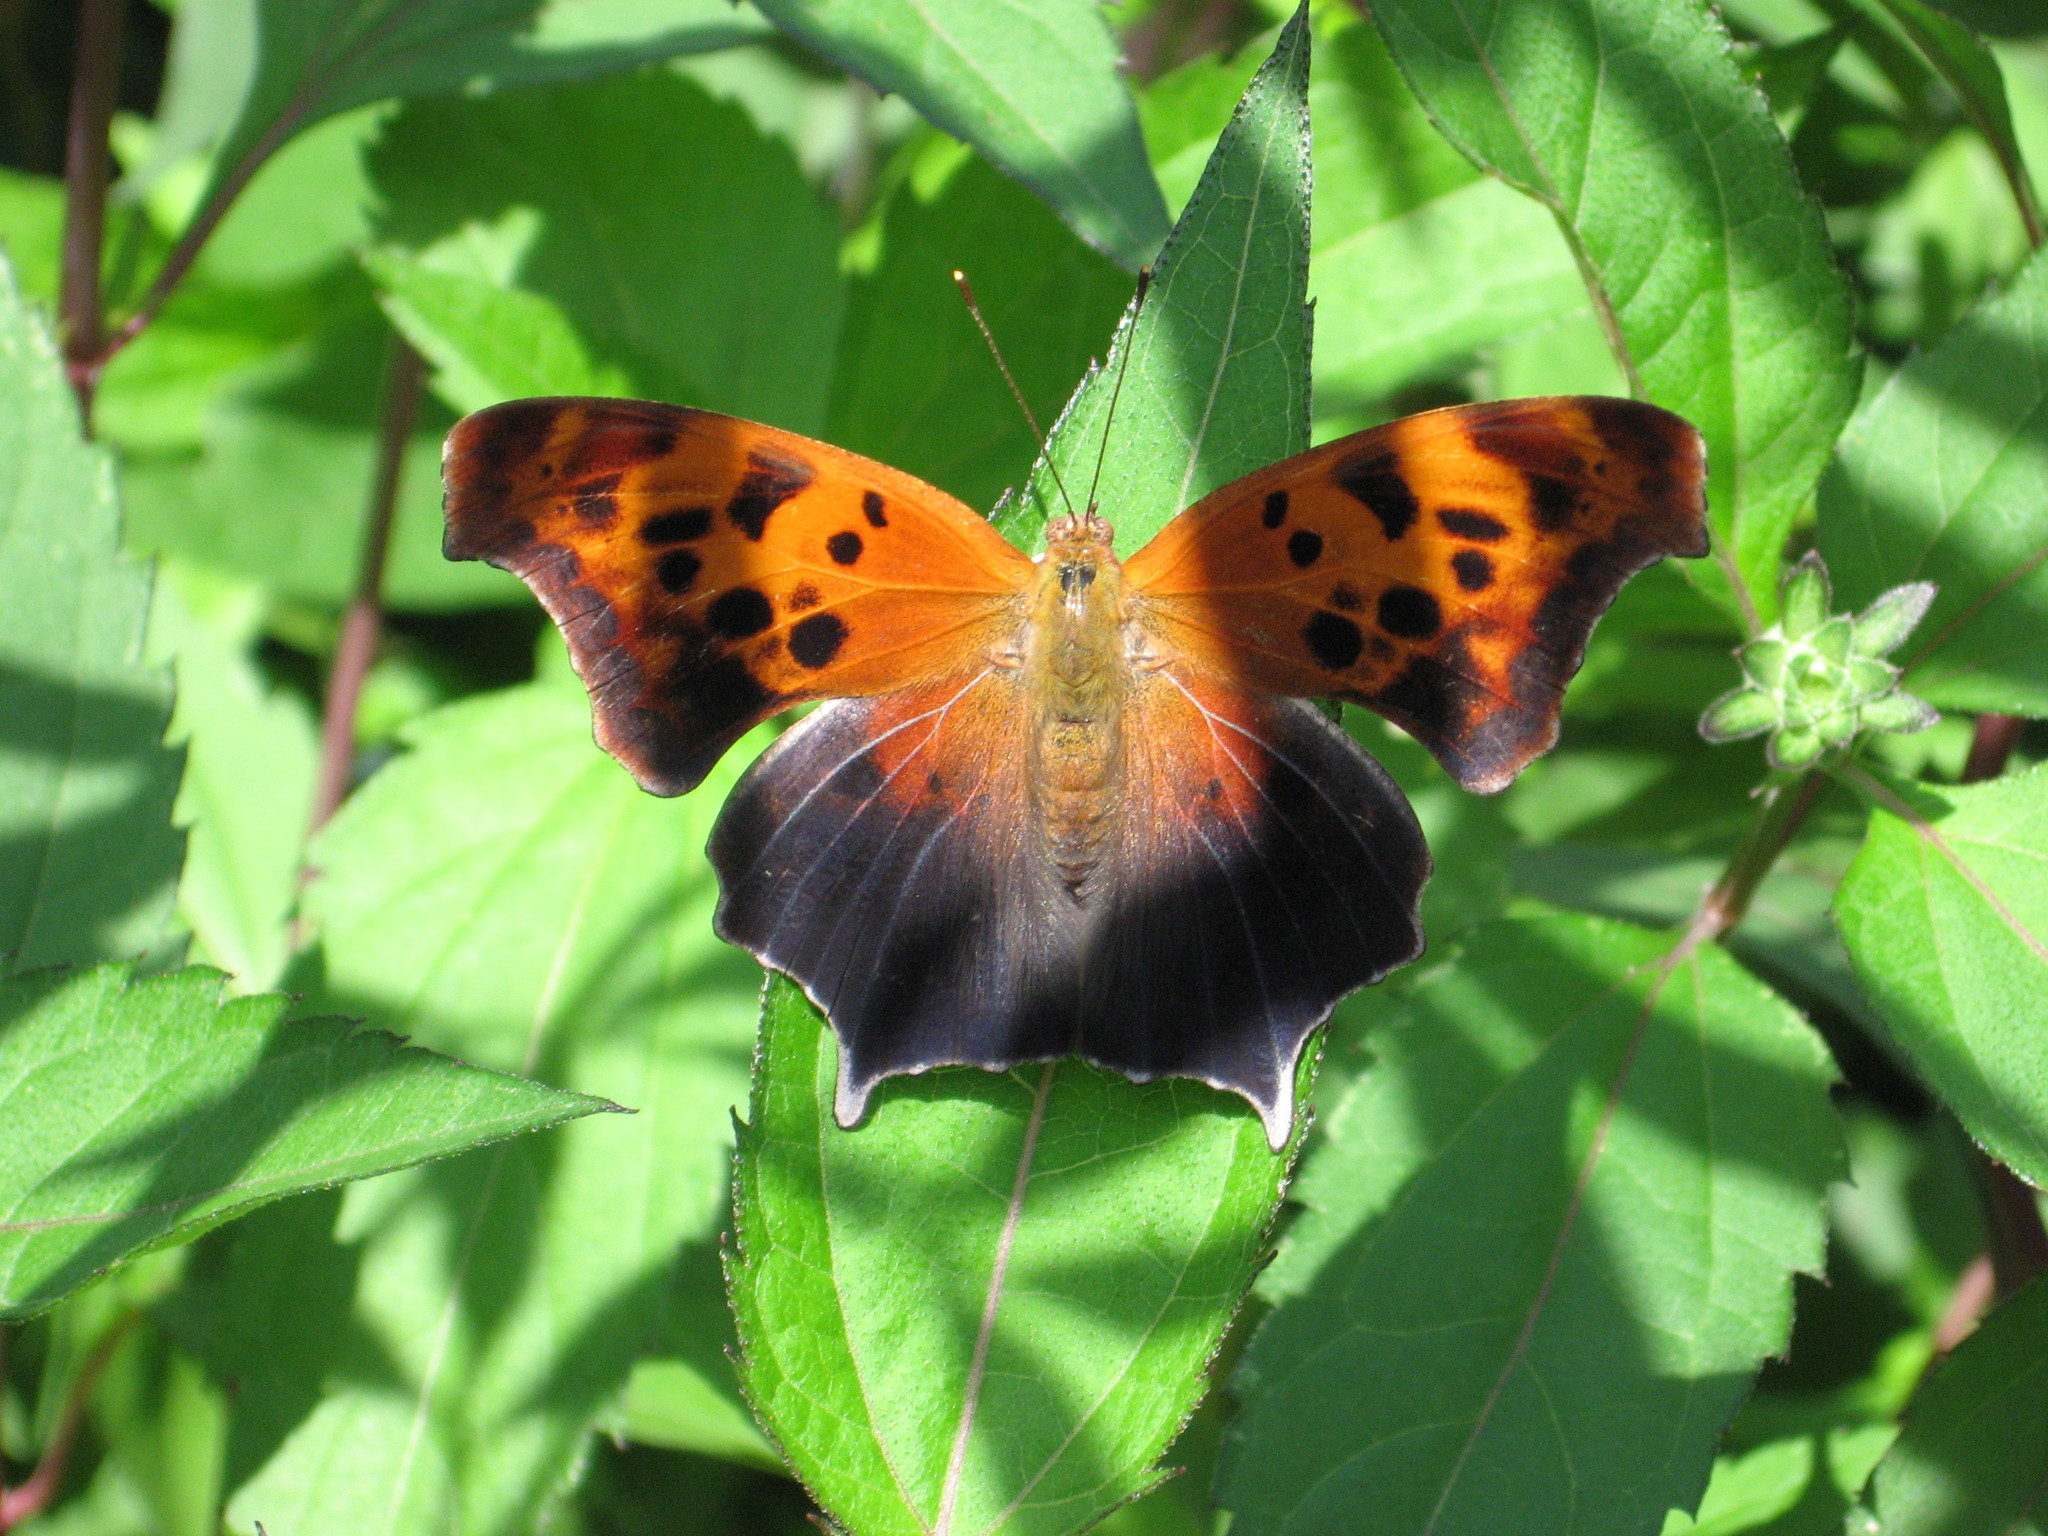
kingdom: Animalia
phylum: Arthropoda
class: Insecta
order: Lepidoptera
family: Nymphalidae
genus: Polygonia
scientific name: Polygonia interrogationis
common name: Question mark
